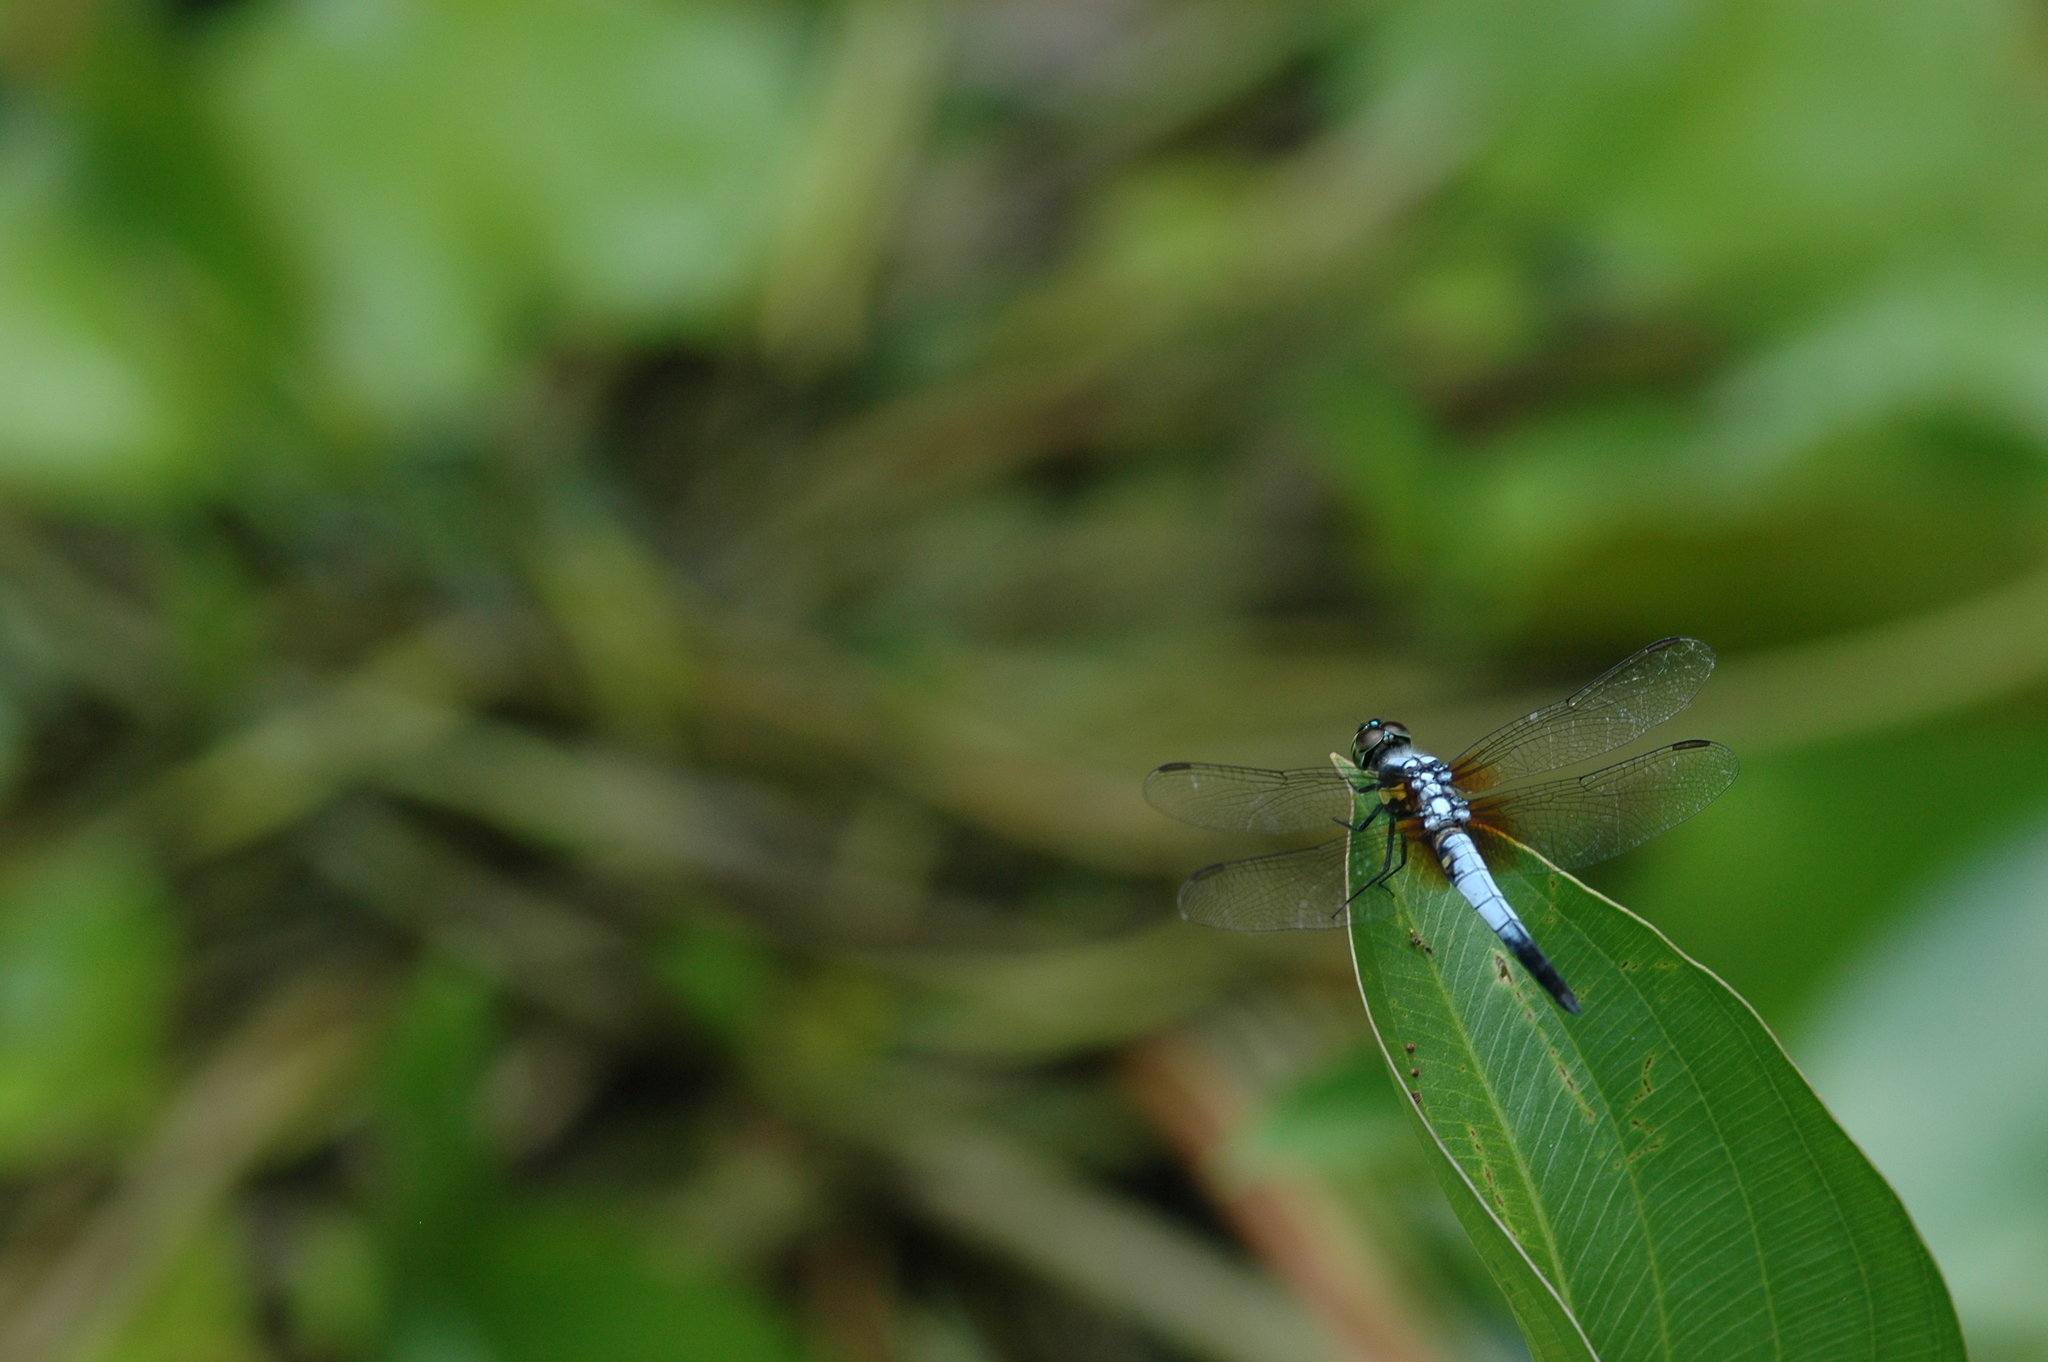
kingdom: Animalia
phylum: Arthropoda
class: Insecta
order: Odonata
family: Libellulidae
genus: Brachydiplax
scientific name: Brachydiplax chalybea
